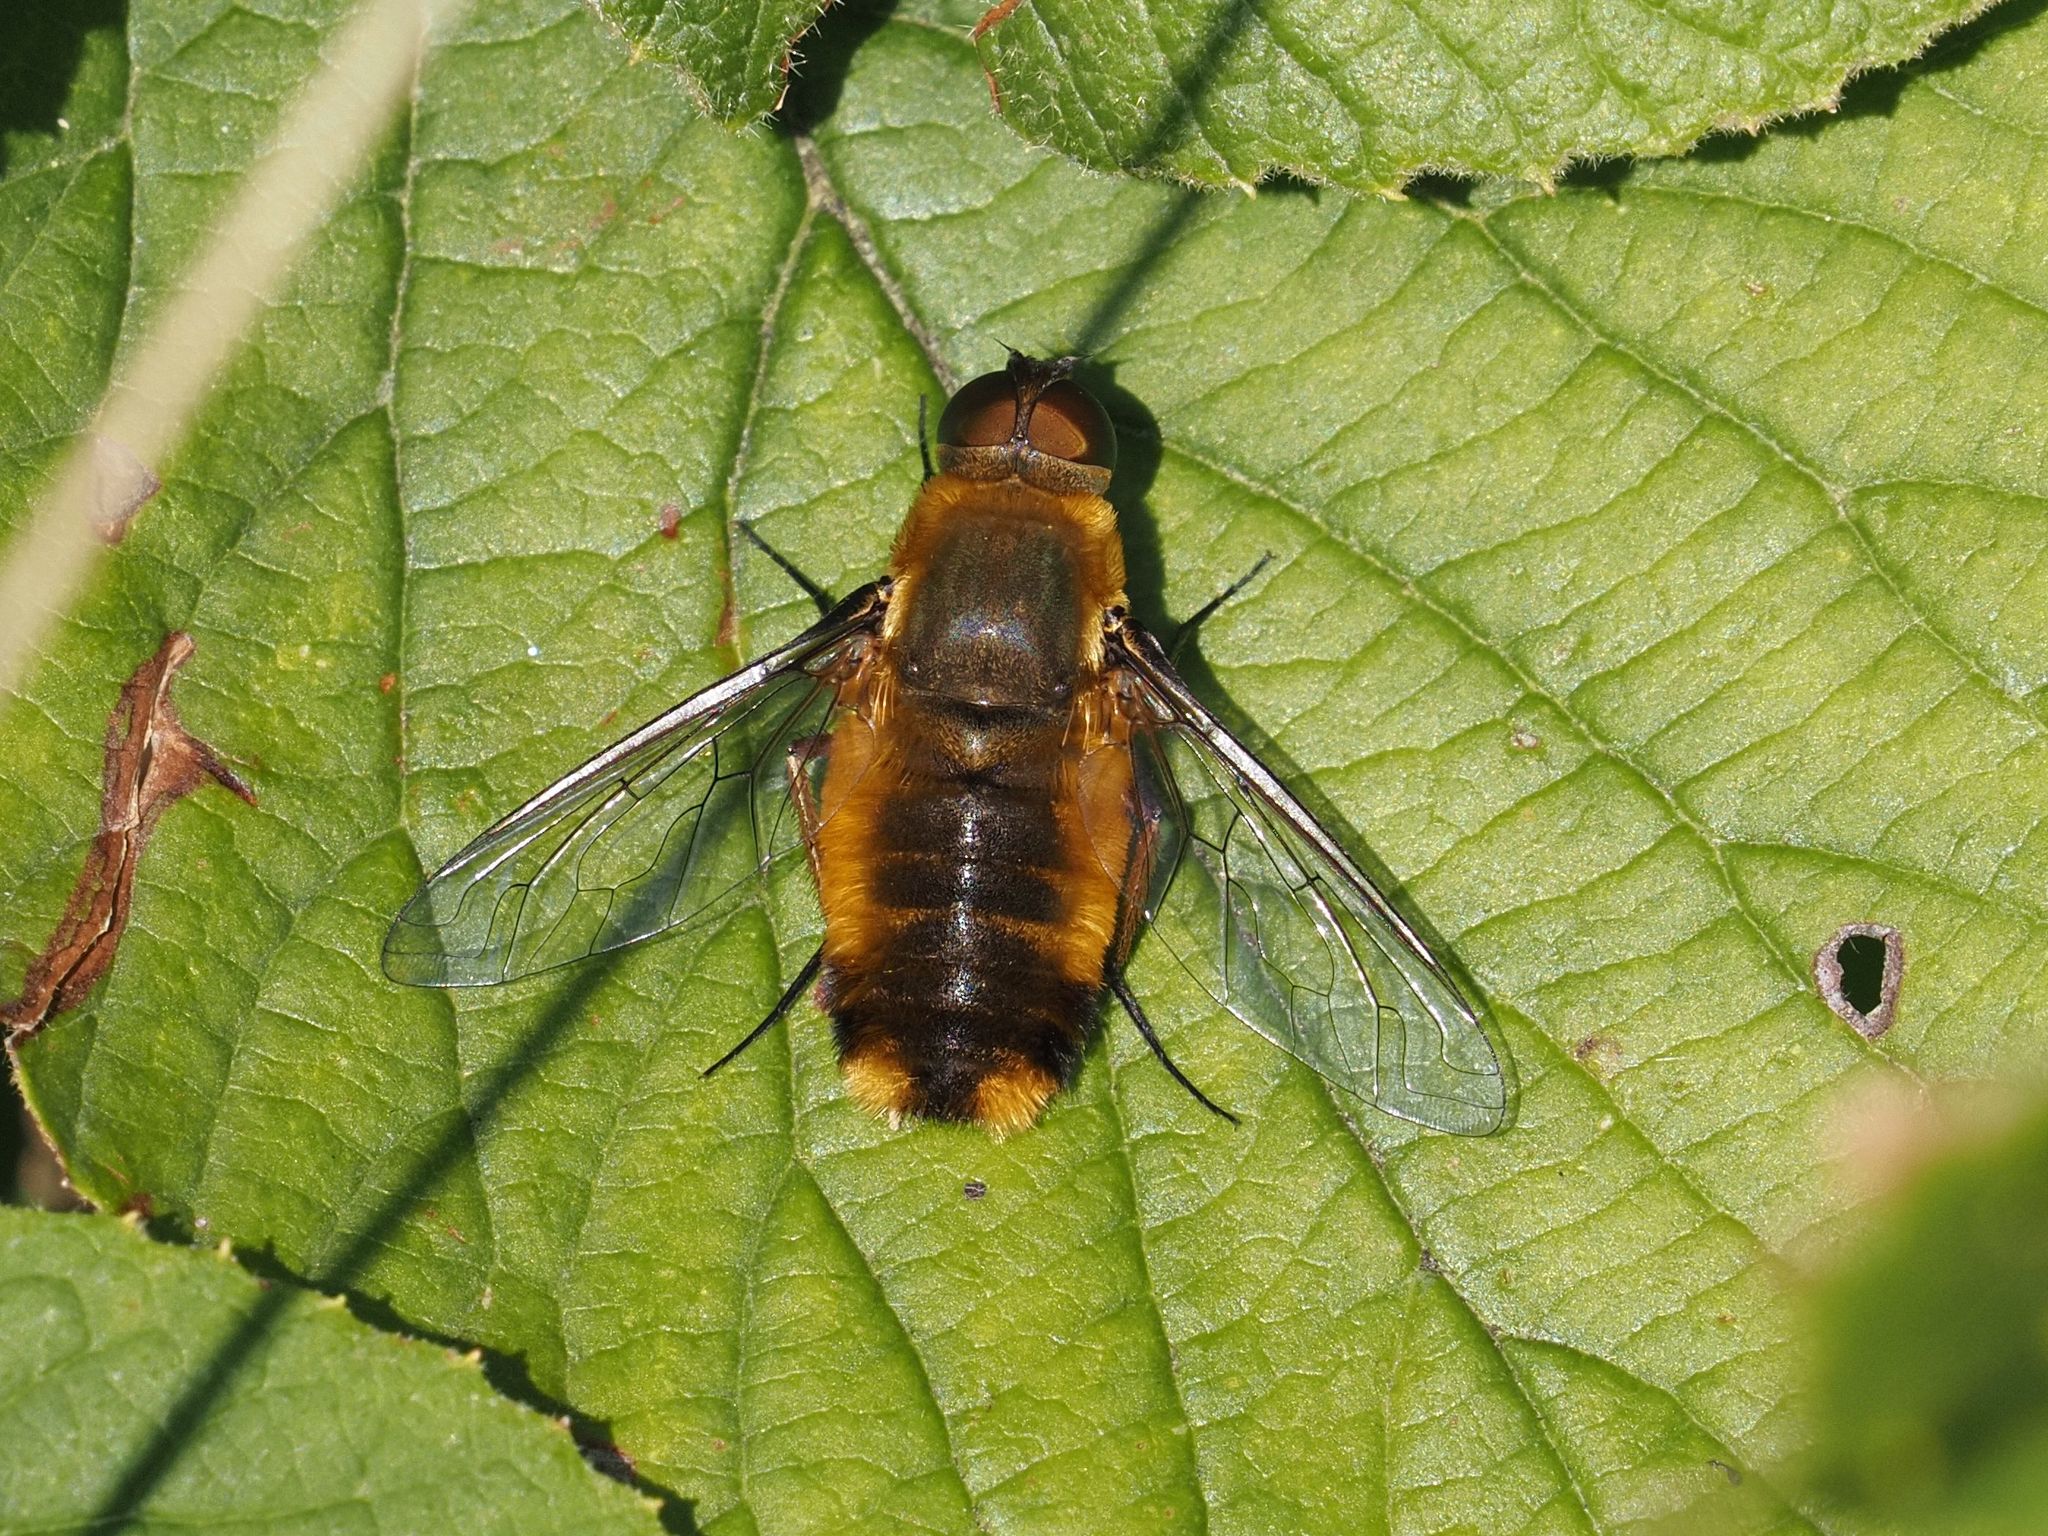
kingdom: Animalia
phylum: Arthropoda
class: Insecta
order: Diptera
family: Bombyliidae
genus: Villa
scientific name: Villa hottentotta
